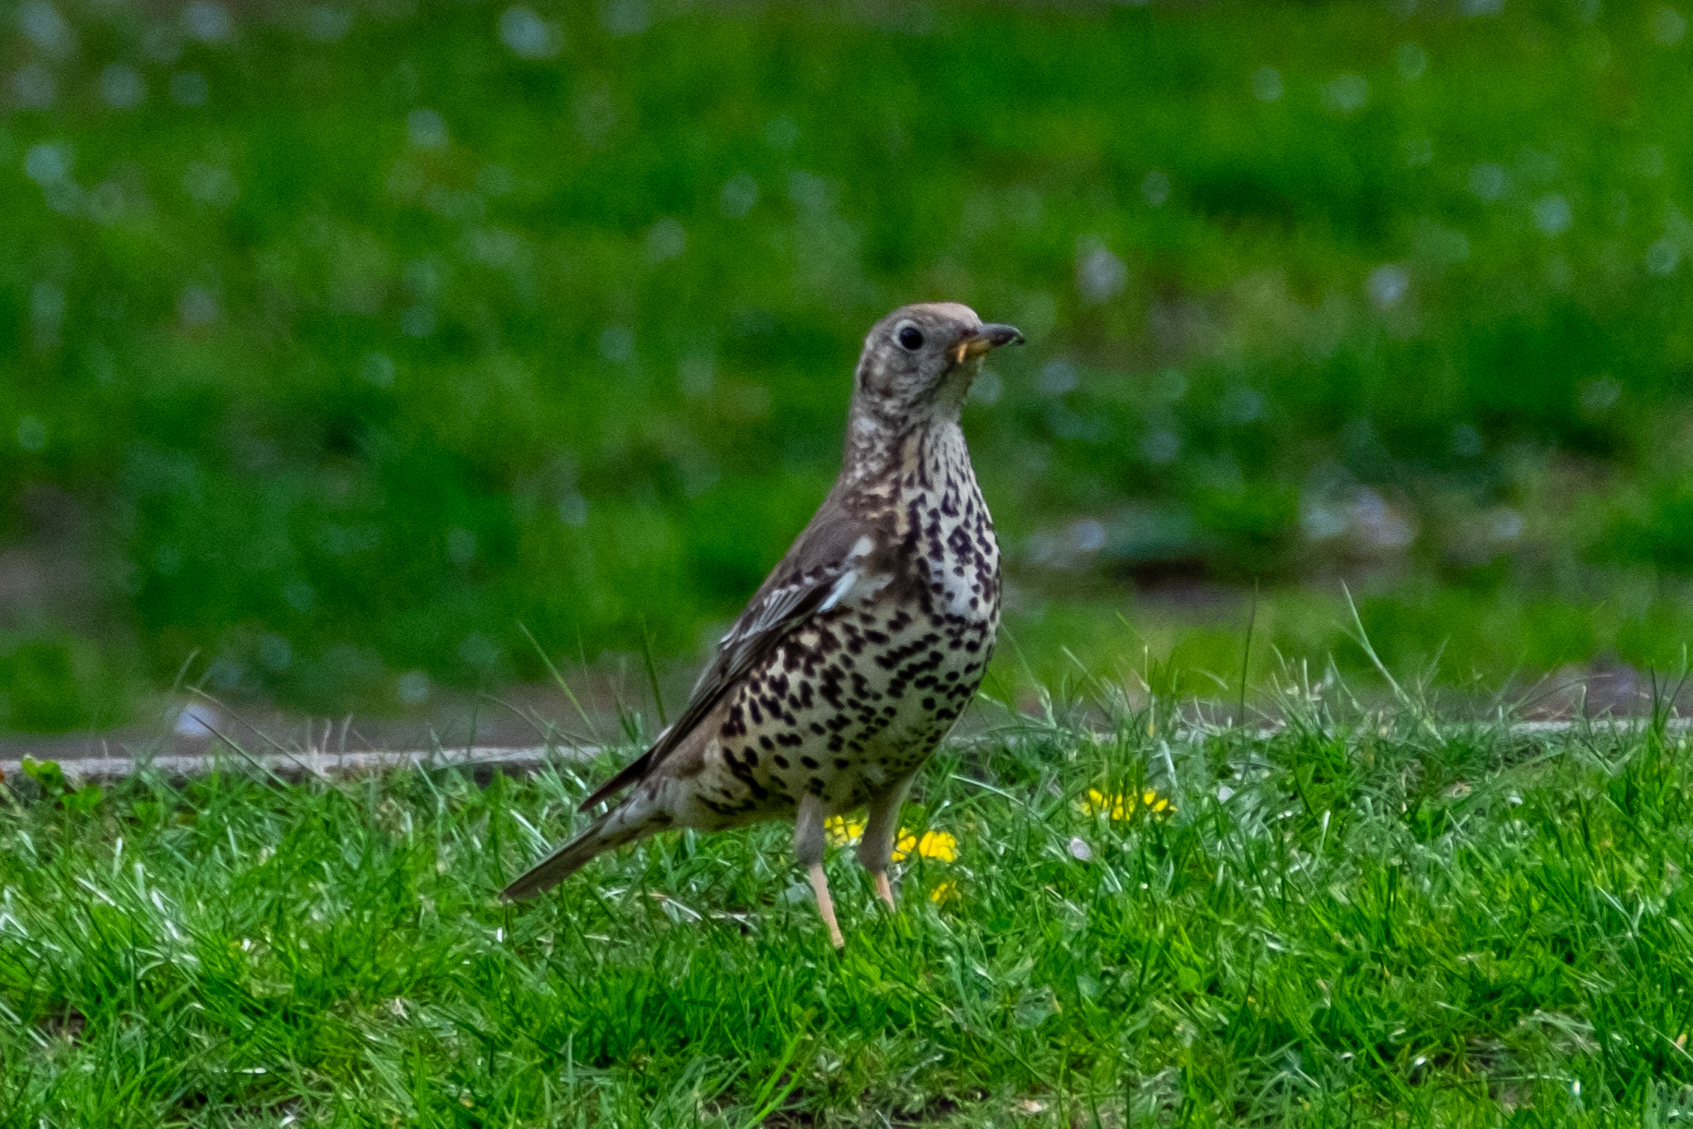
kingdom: Animalia
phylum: Chordata
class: Aves
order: Passeriformes
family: Turdidae
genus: Turdus
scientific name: Turdus viscivorus
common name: Mistle thrush
